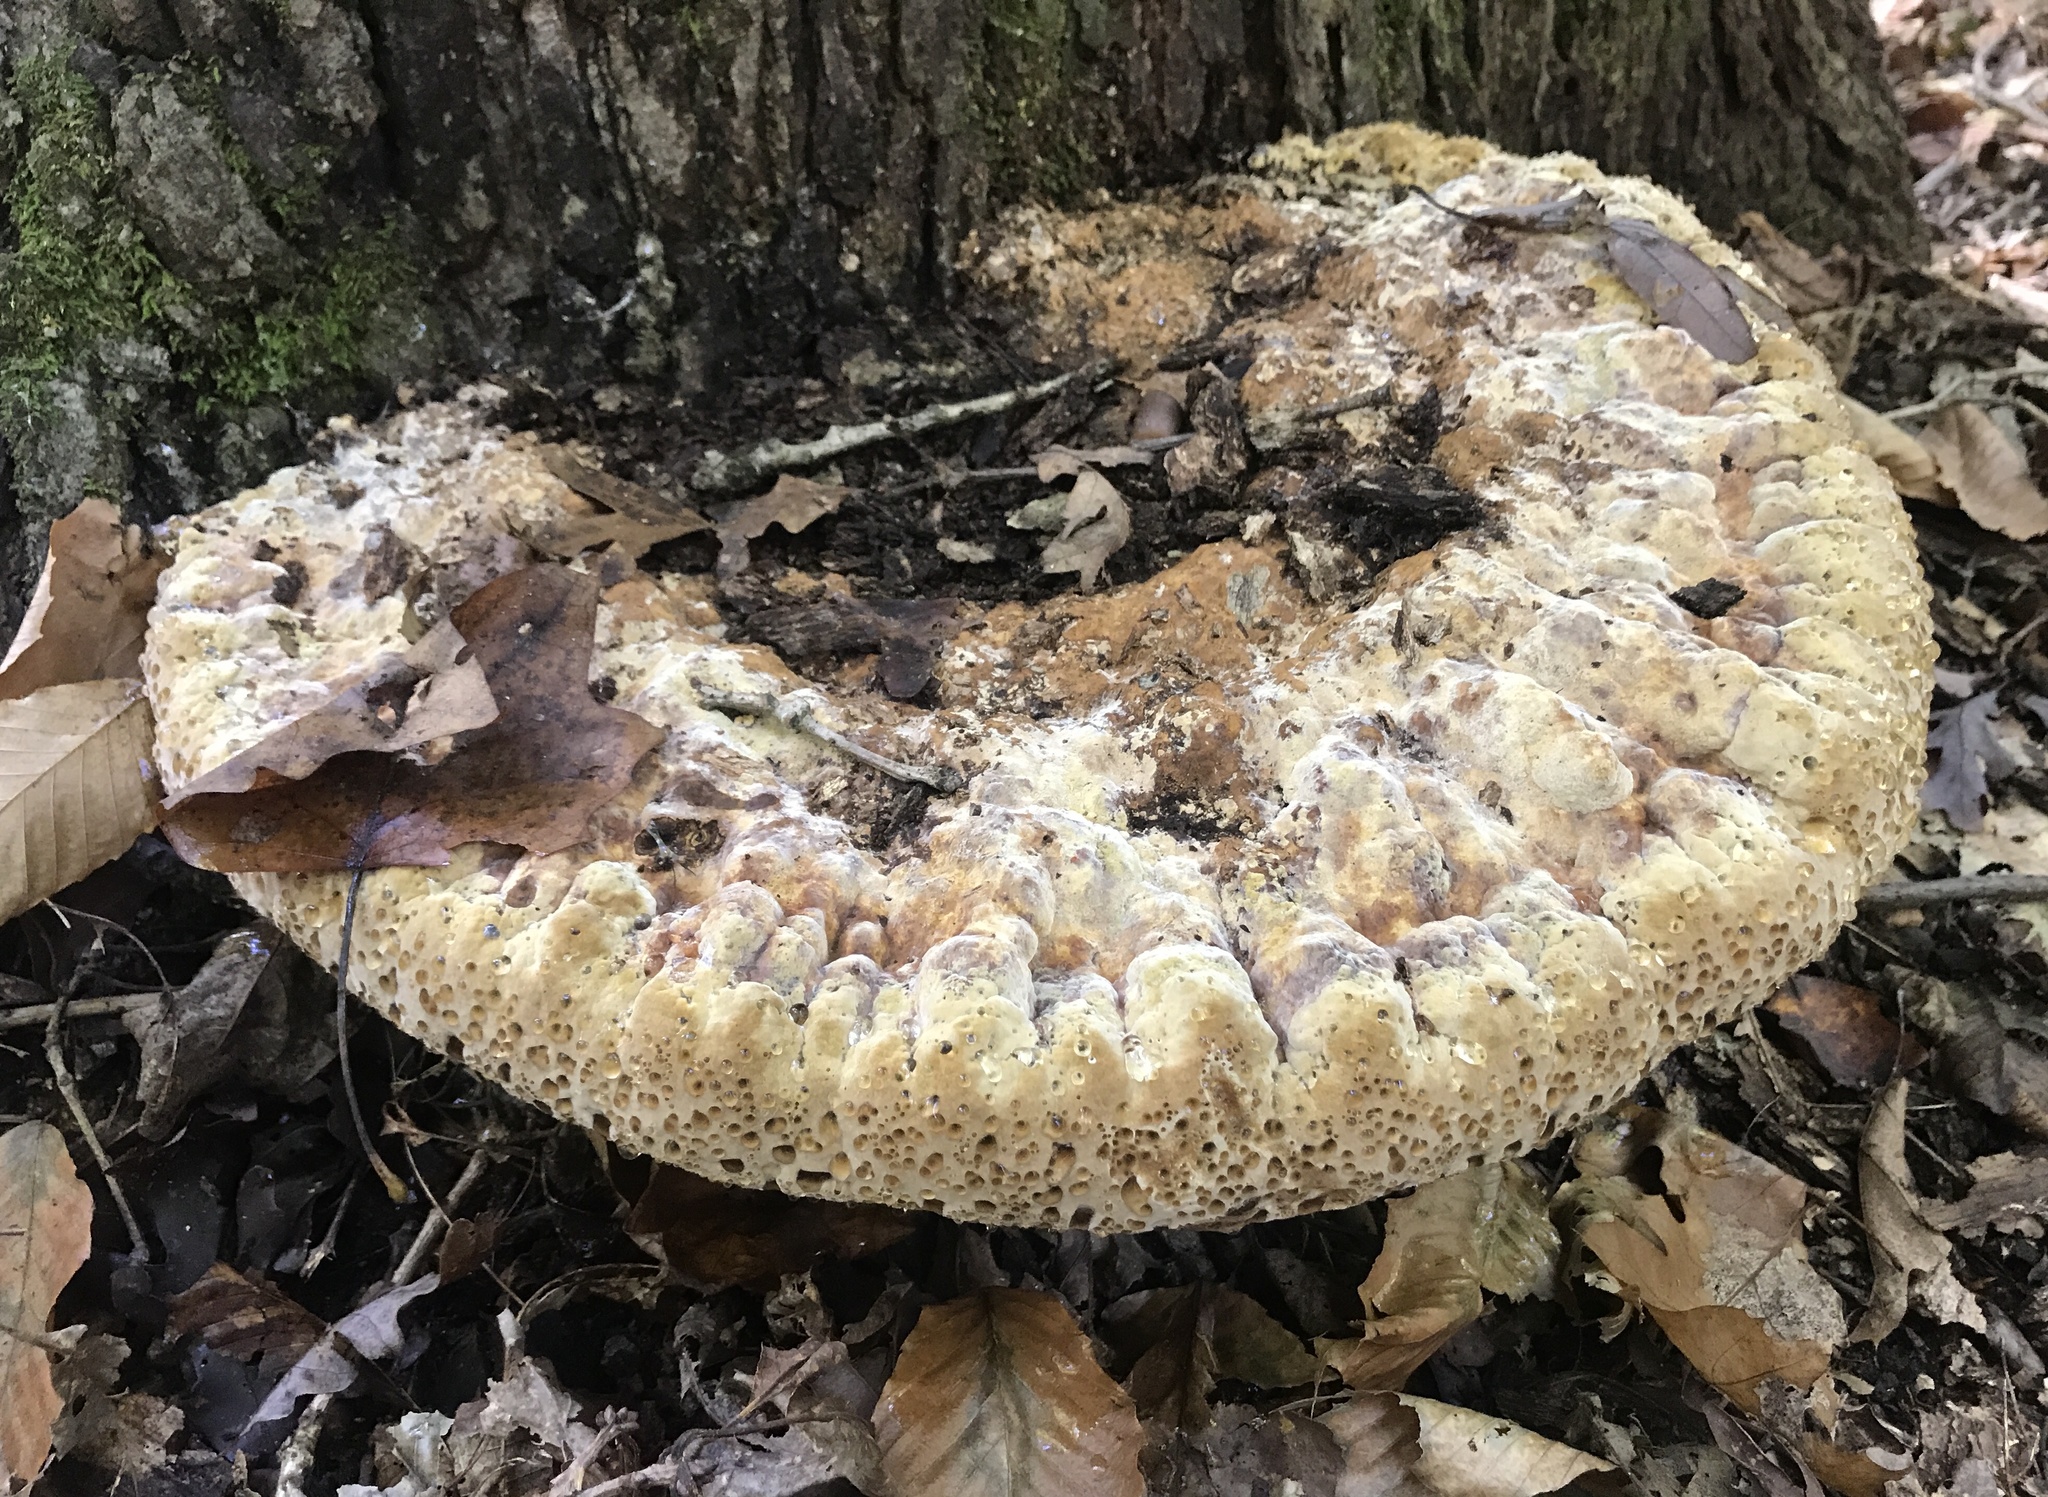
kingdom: Fungi
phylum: Basidiomycota
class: Agaricomycetes
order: Hymenochaetales
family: Hymenochaetaceae
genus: Pseudoinonotus
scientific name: Pseudoinonotus dryadeus
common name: Oak bracket
